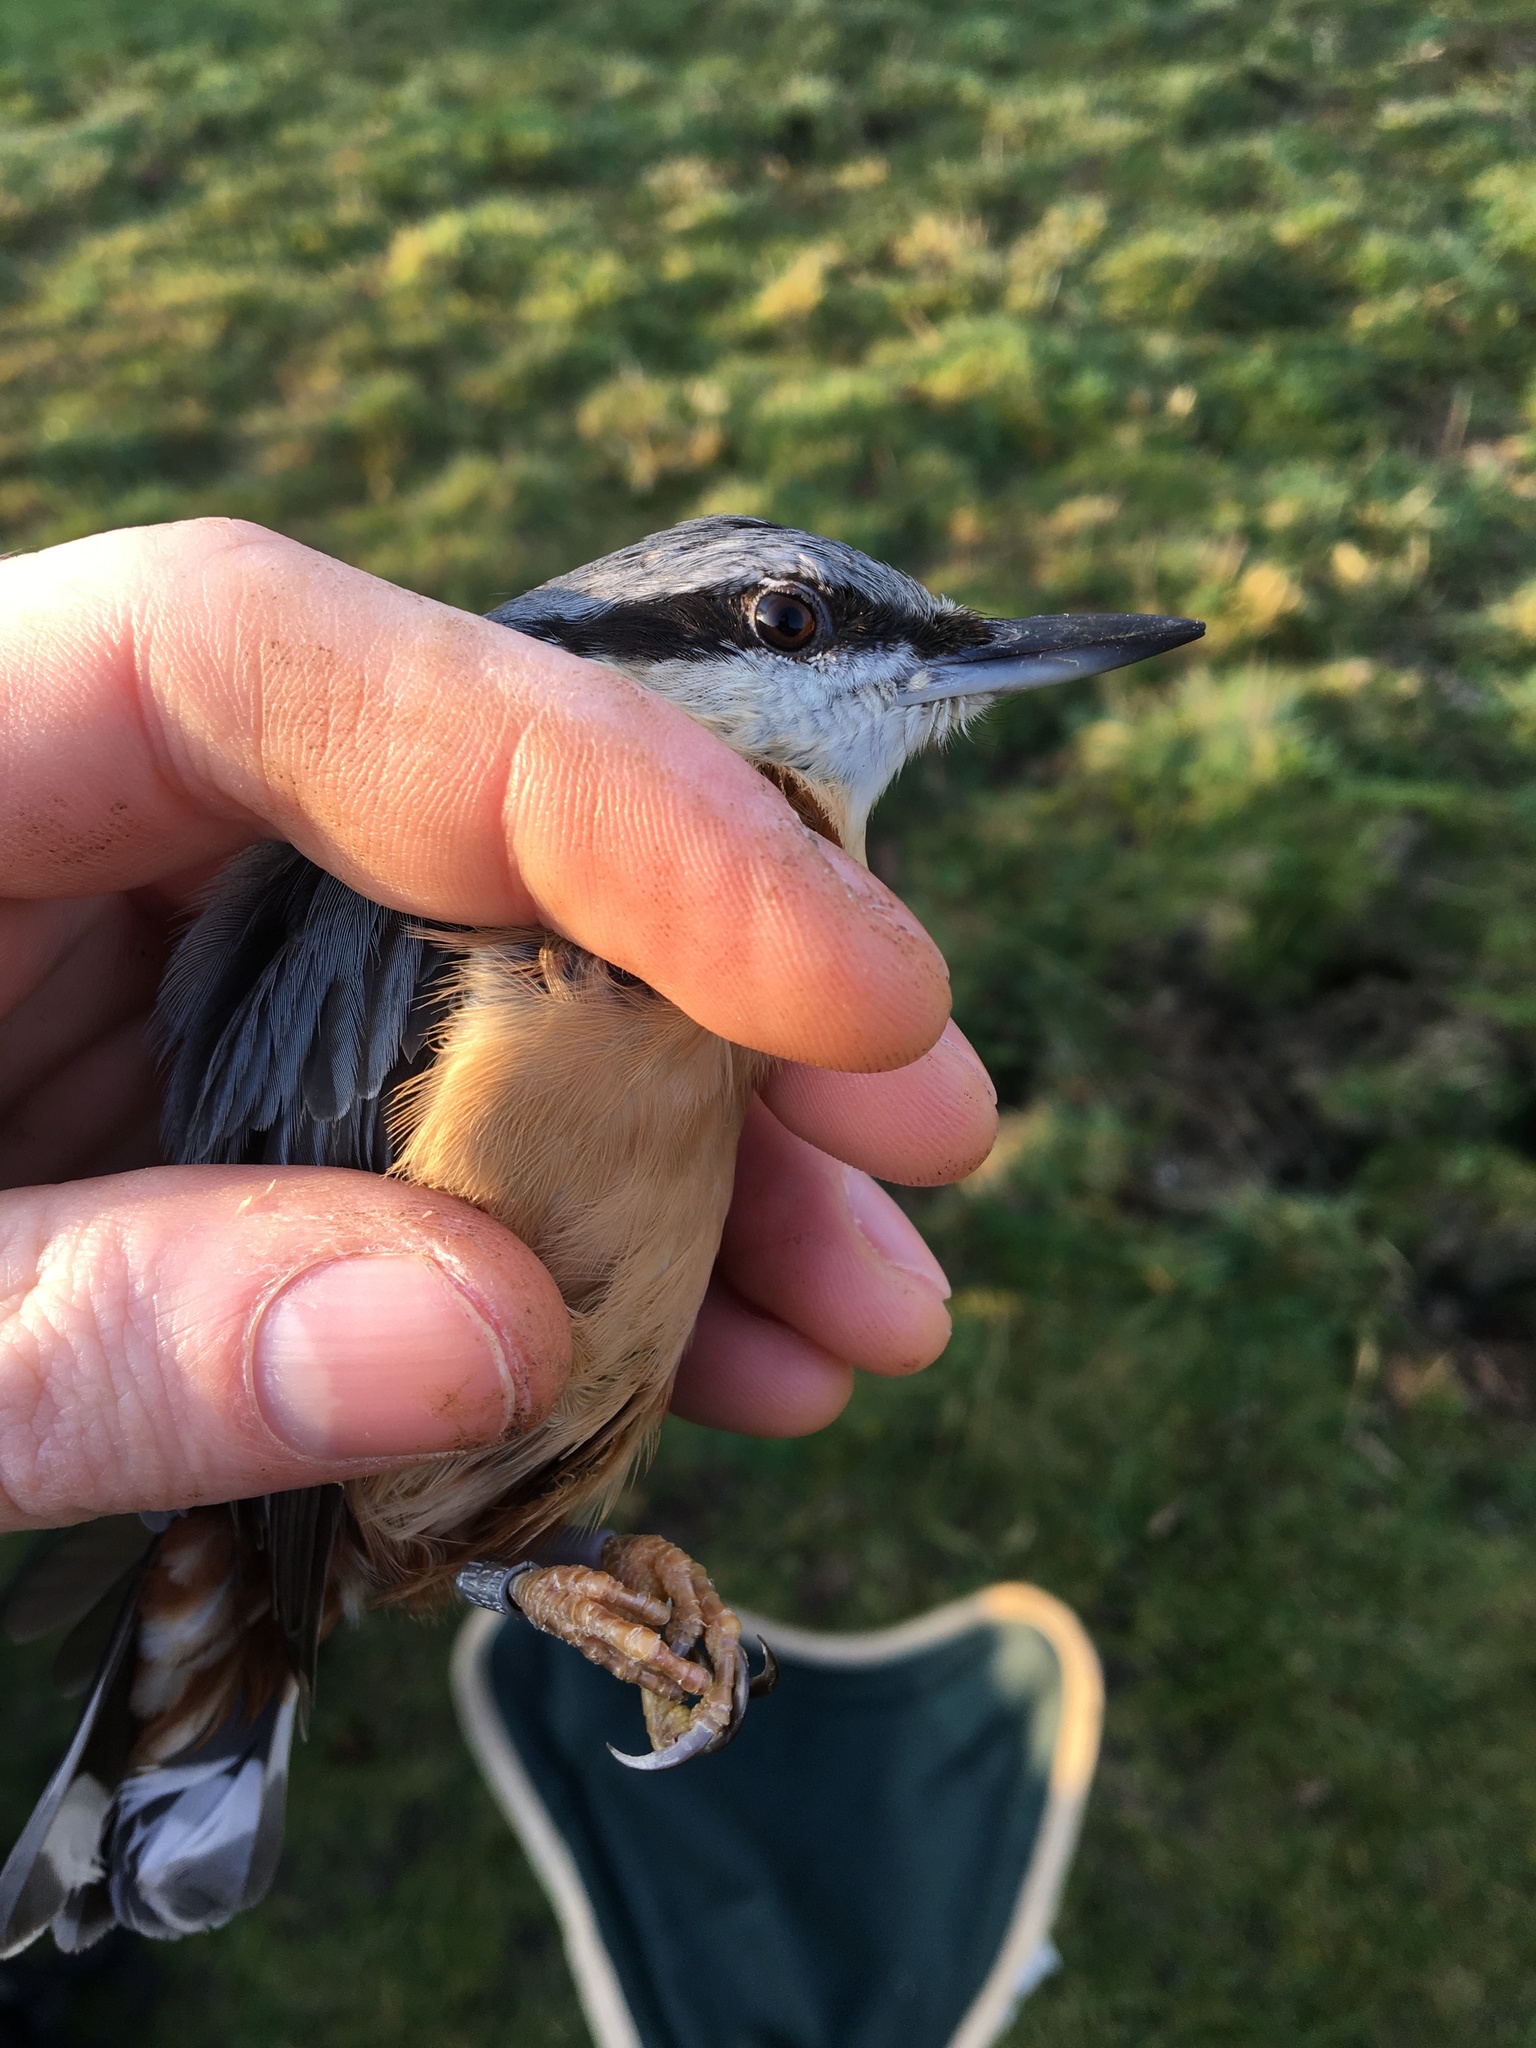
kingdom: Animalia
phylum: Chordata
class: Aves
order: Passeriformes
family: Sittidae
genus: Sitta
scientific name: Sitta europaea
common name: Eurasian nuthatch
